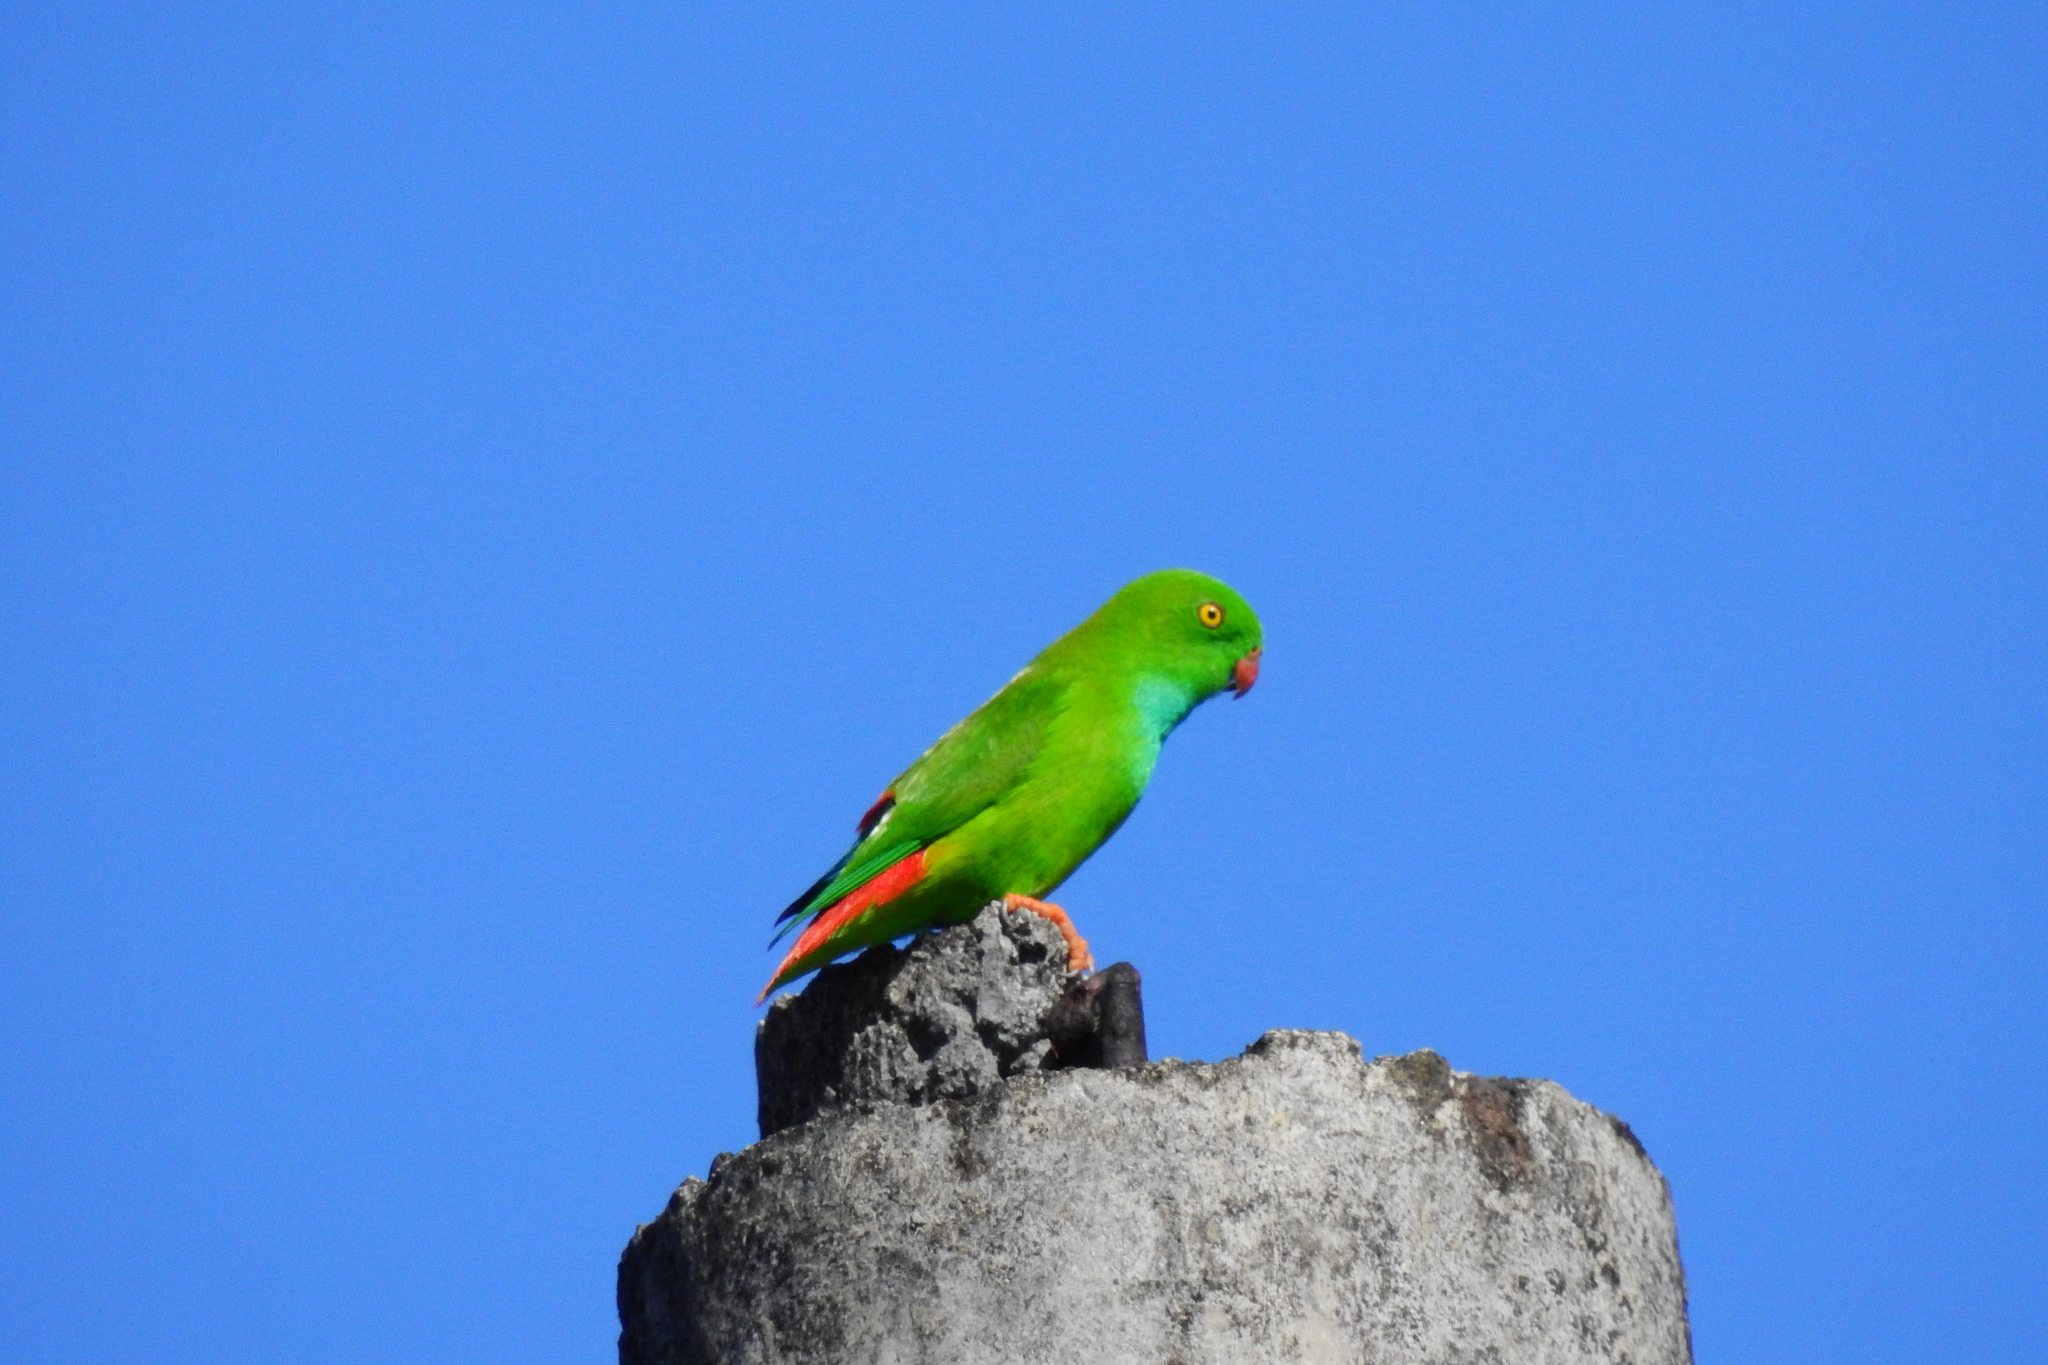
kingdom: Animalia
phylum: Chordata
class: Aves
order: Psittaciformes
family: Psittacidae
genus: Loriculus
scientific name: Loriculus exilis
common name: Pygmy hanging parrot
